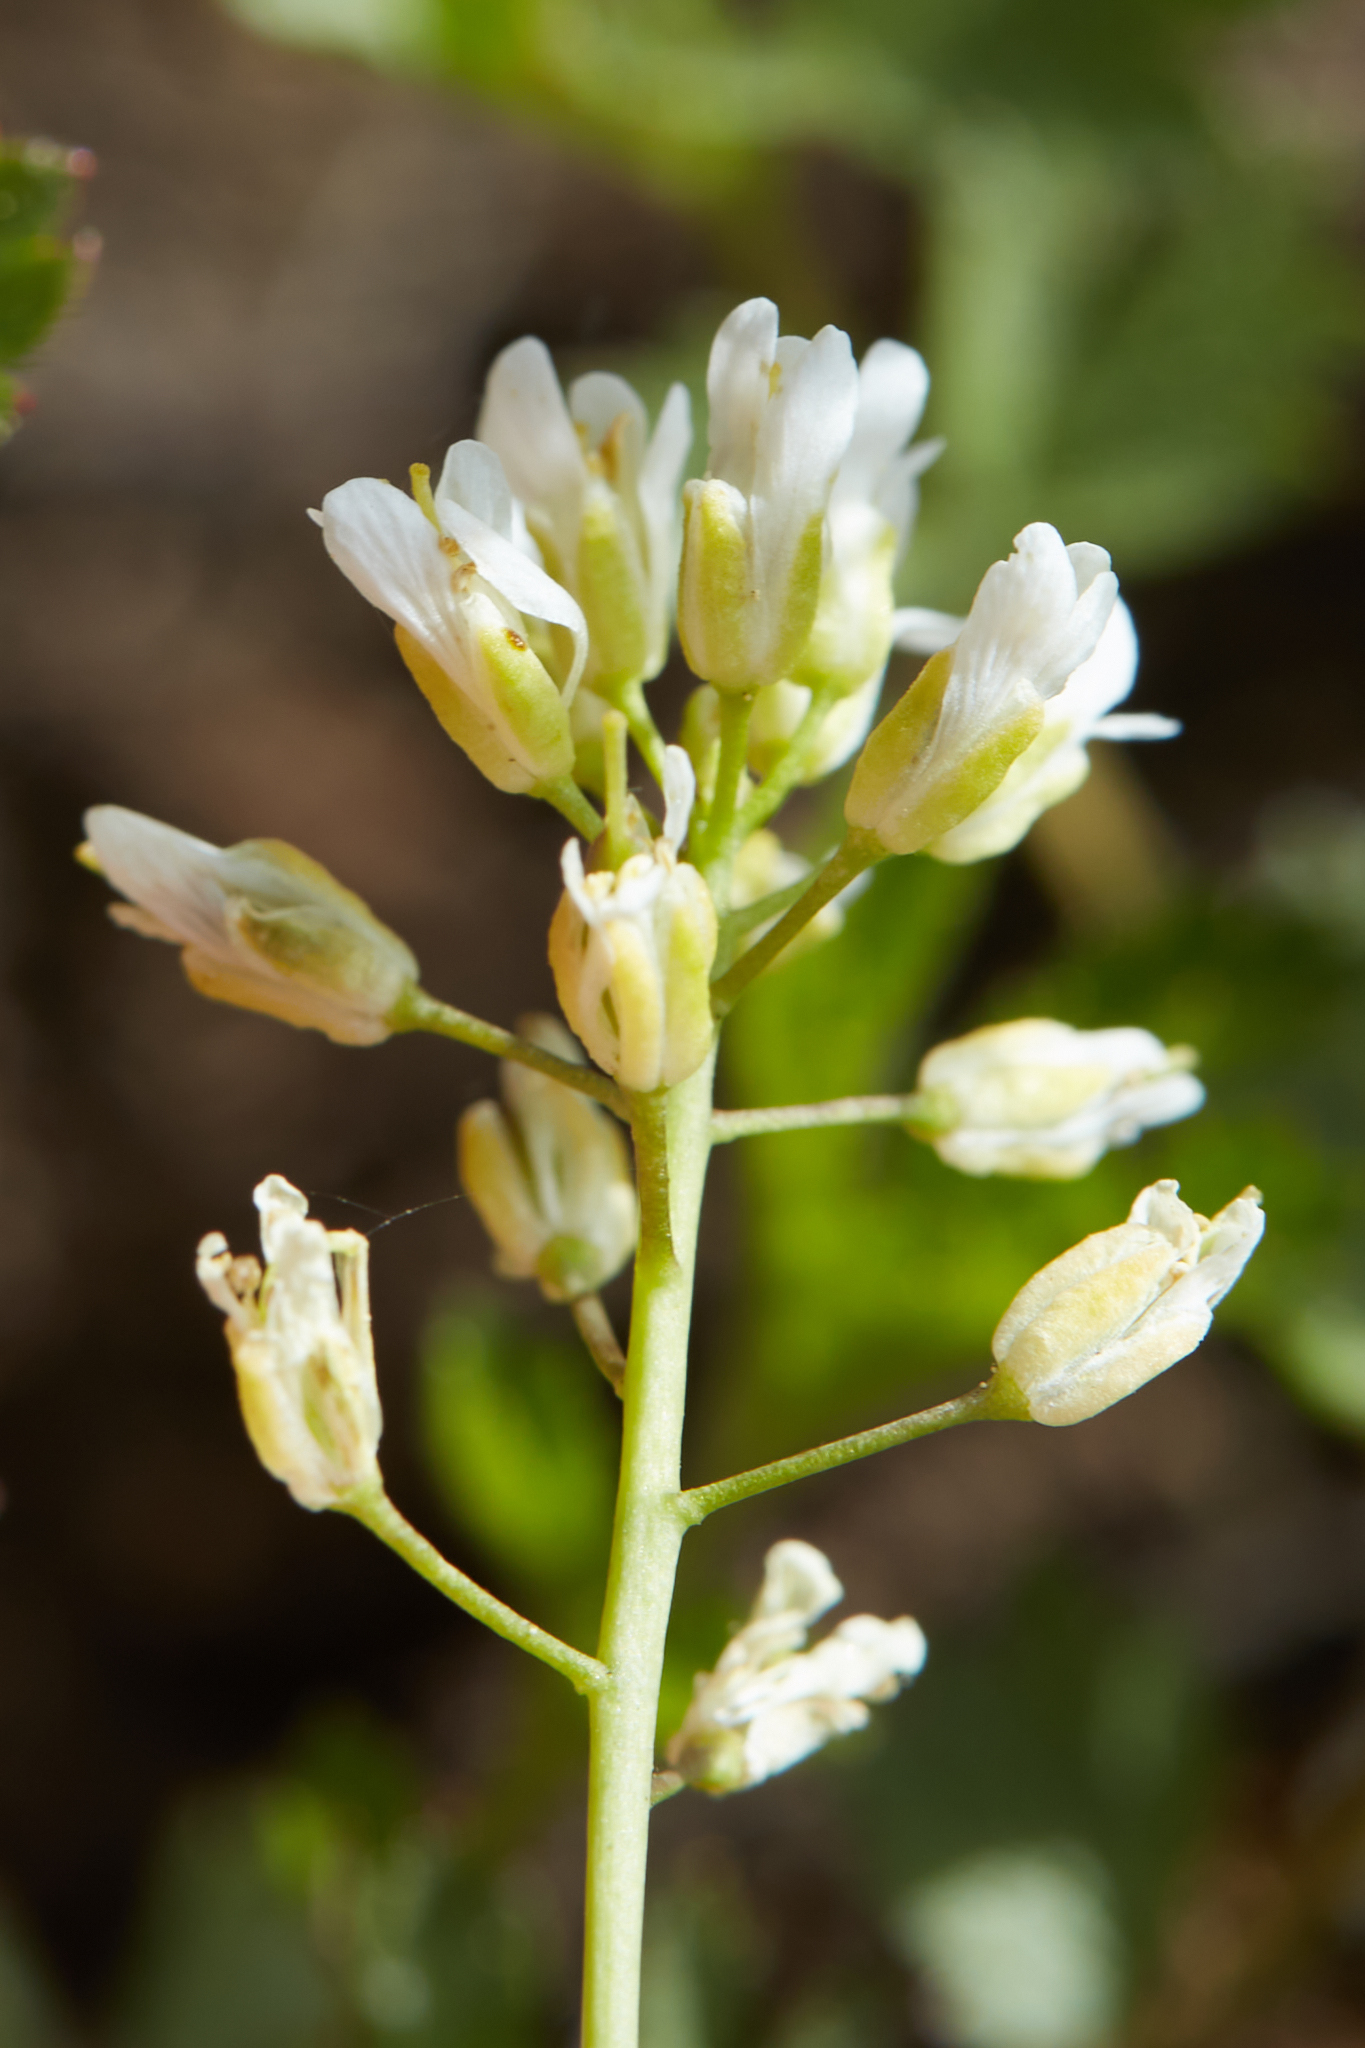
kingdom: Plantae
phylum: Tracheophyta
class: Magnoliopsida
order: Brassicales
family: Brassicaceae
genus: Noccaea
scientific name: Noccaea fendleri
